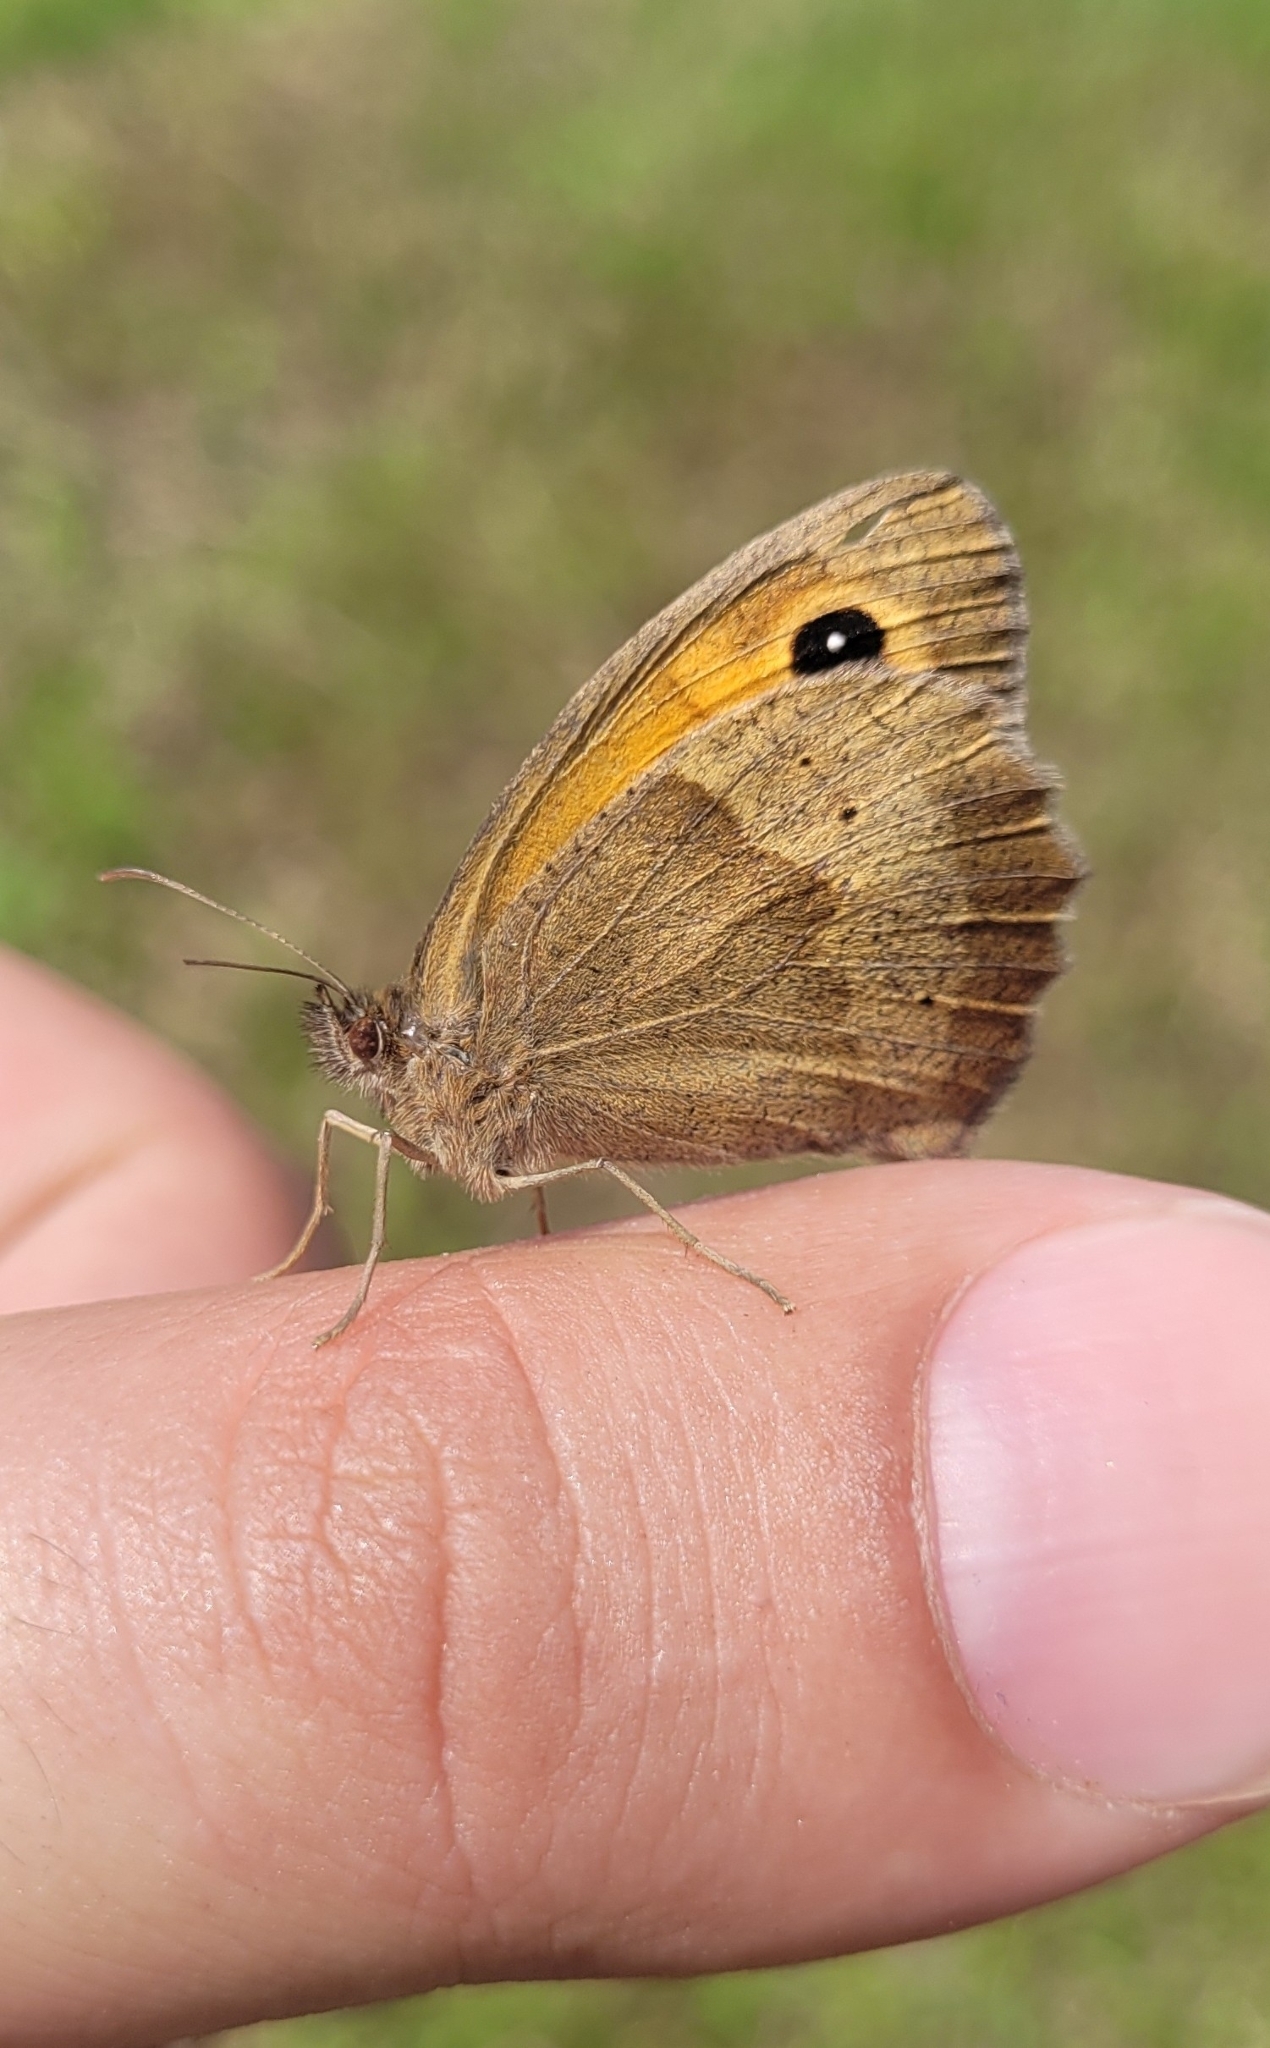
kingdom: Animalia
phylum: Arthropoda
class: Insecta
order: Lepidoptera
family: Nymphalidae
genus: Maniola
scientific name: Maniola jurtina
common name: Meadow brown
